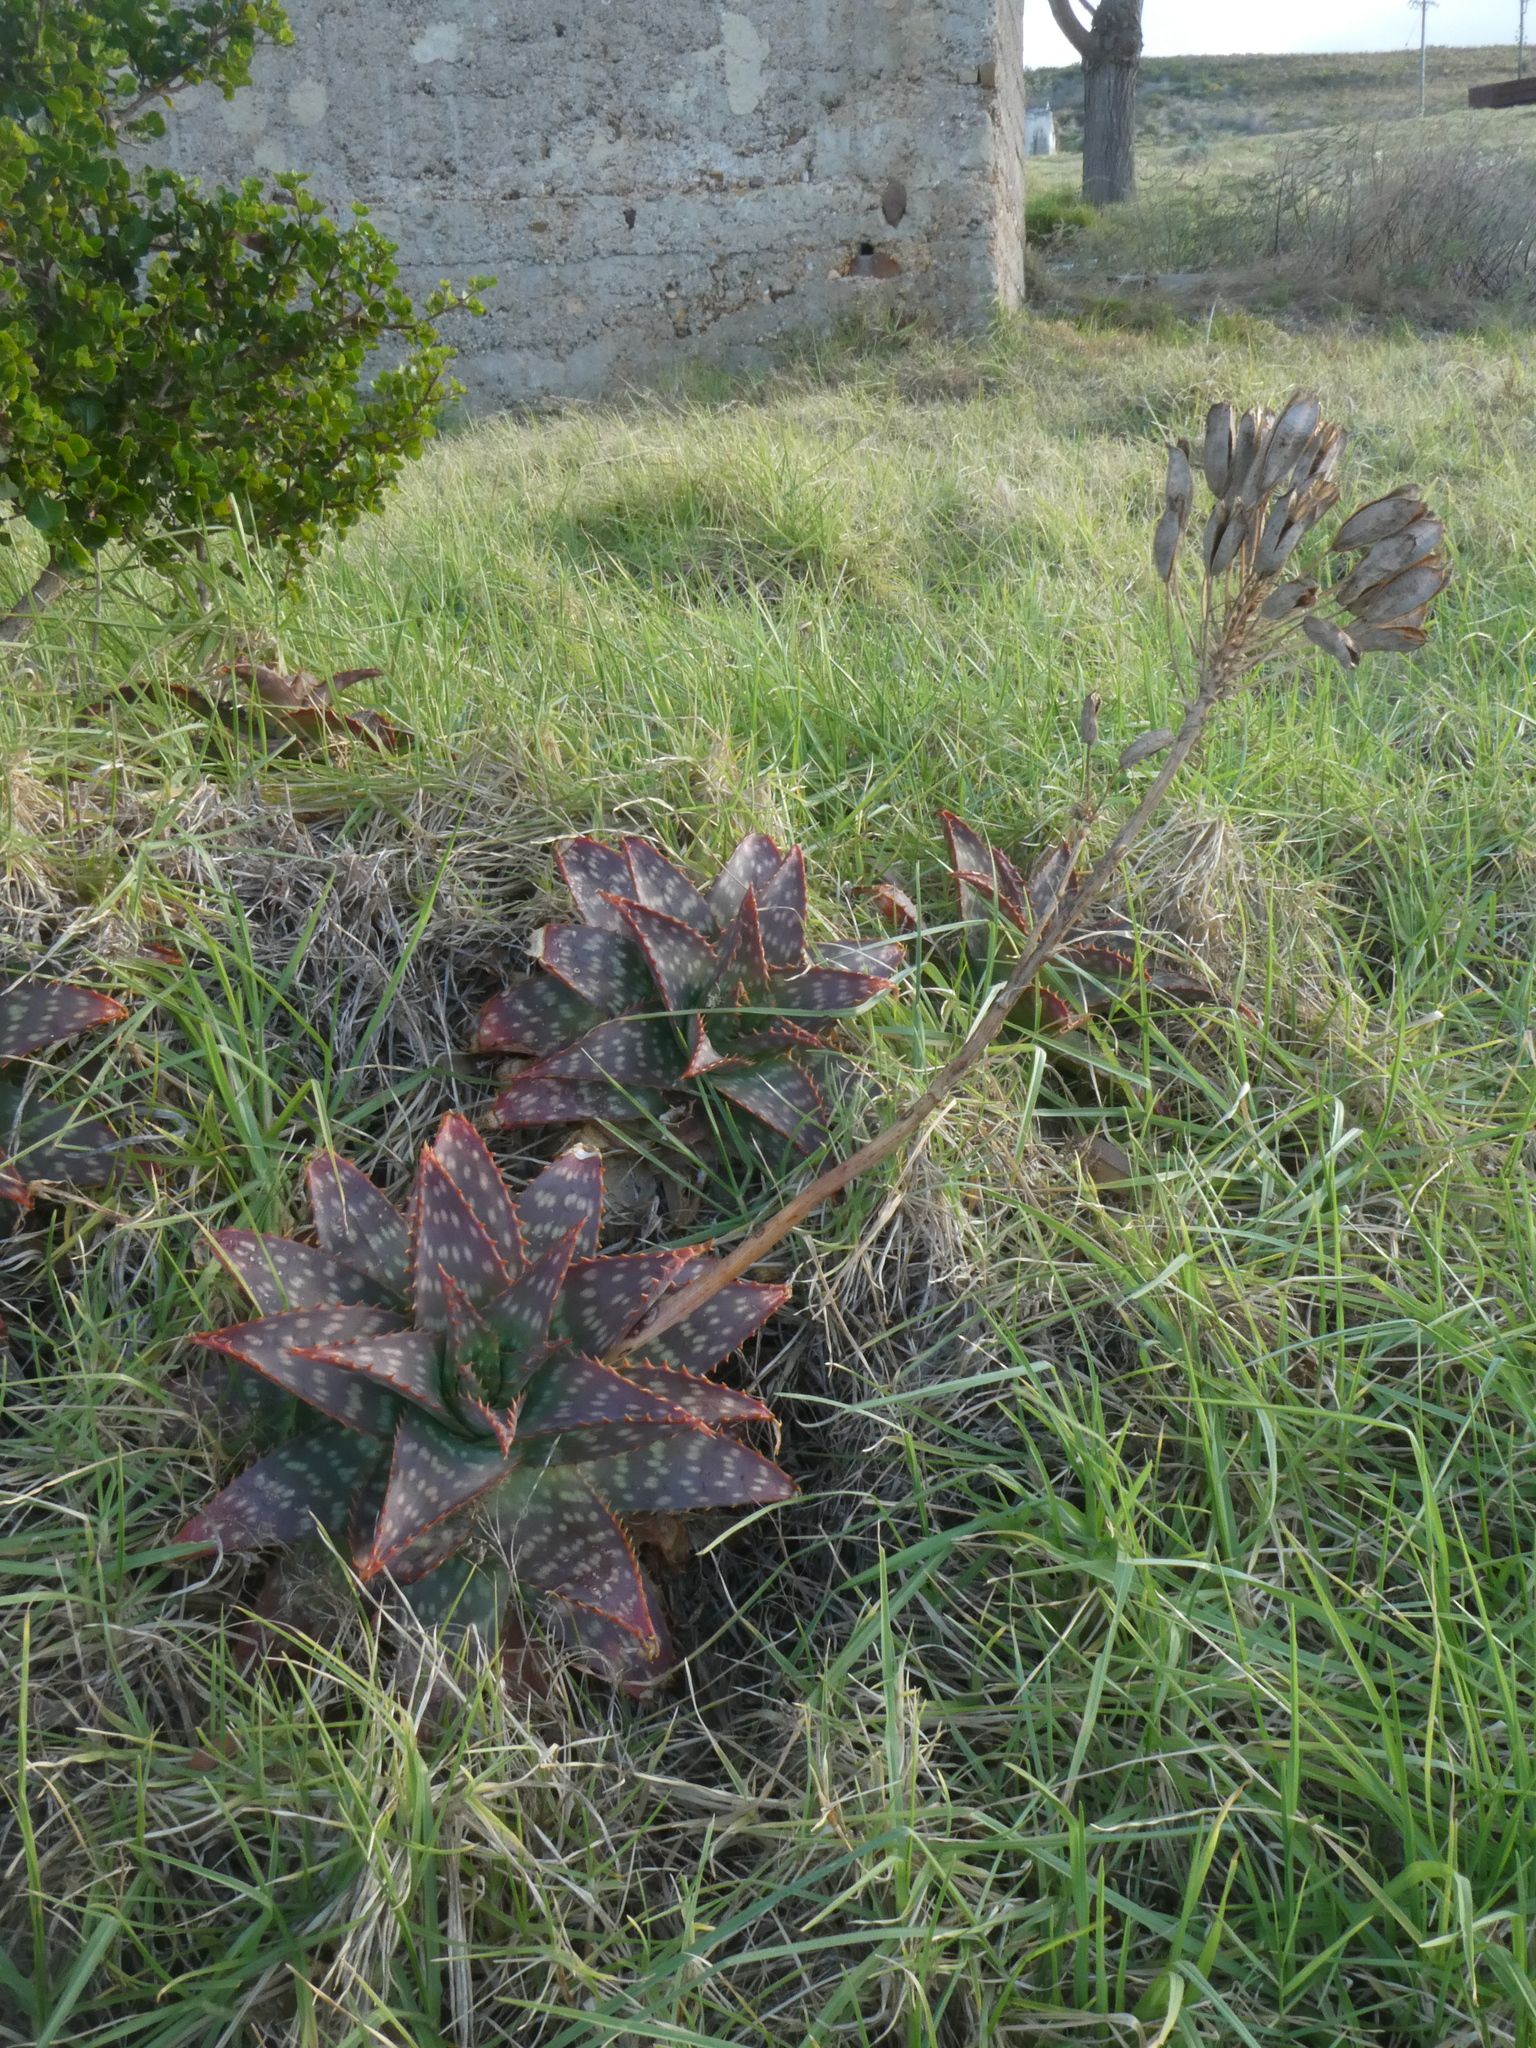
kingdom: Plantae
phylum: Tracheophyta
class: Liliopsida
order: Asparagales
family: Asphodelaceae
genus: Aloe
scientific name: Aloe maculata
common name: Broadleaf aloe
